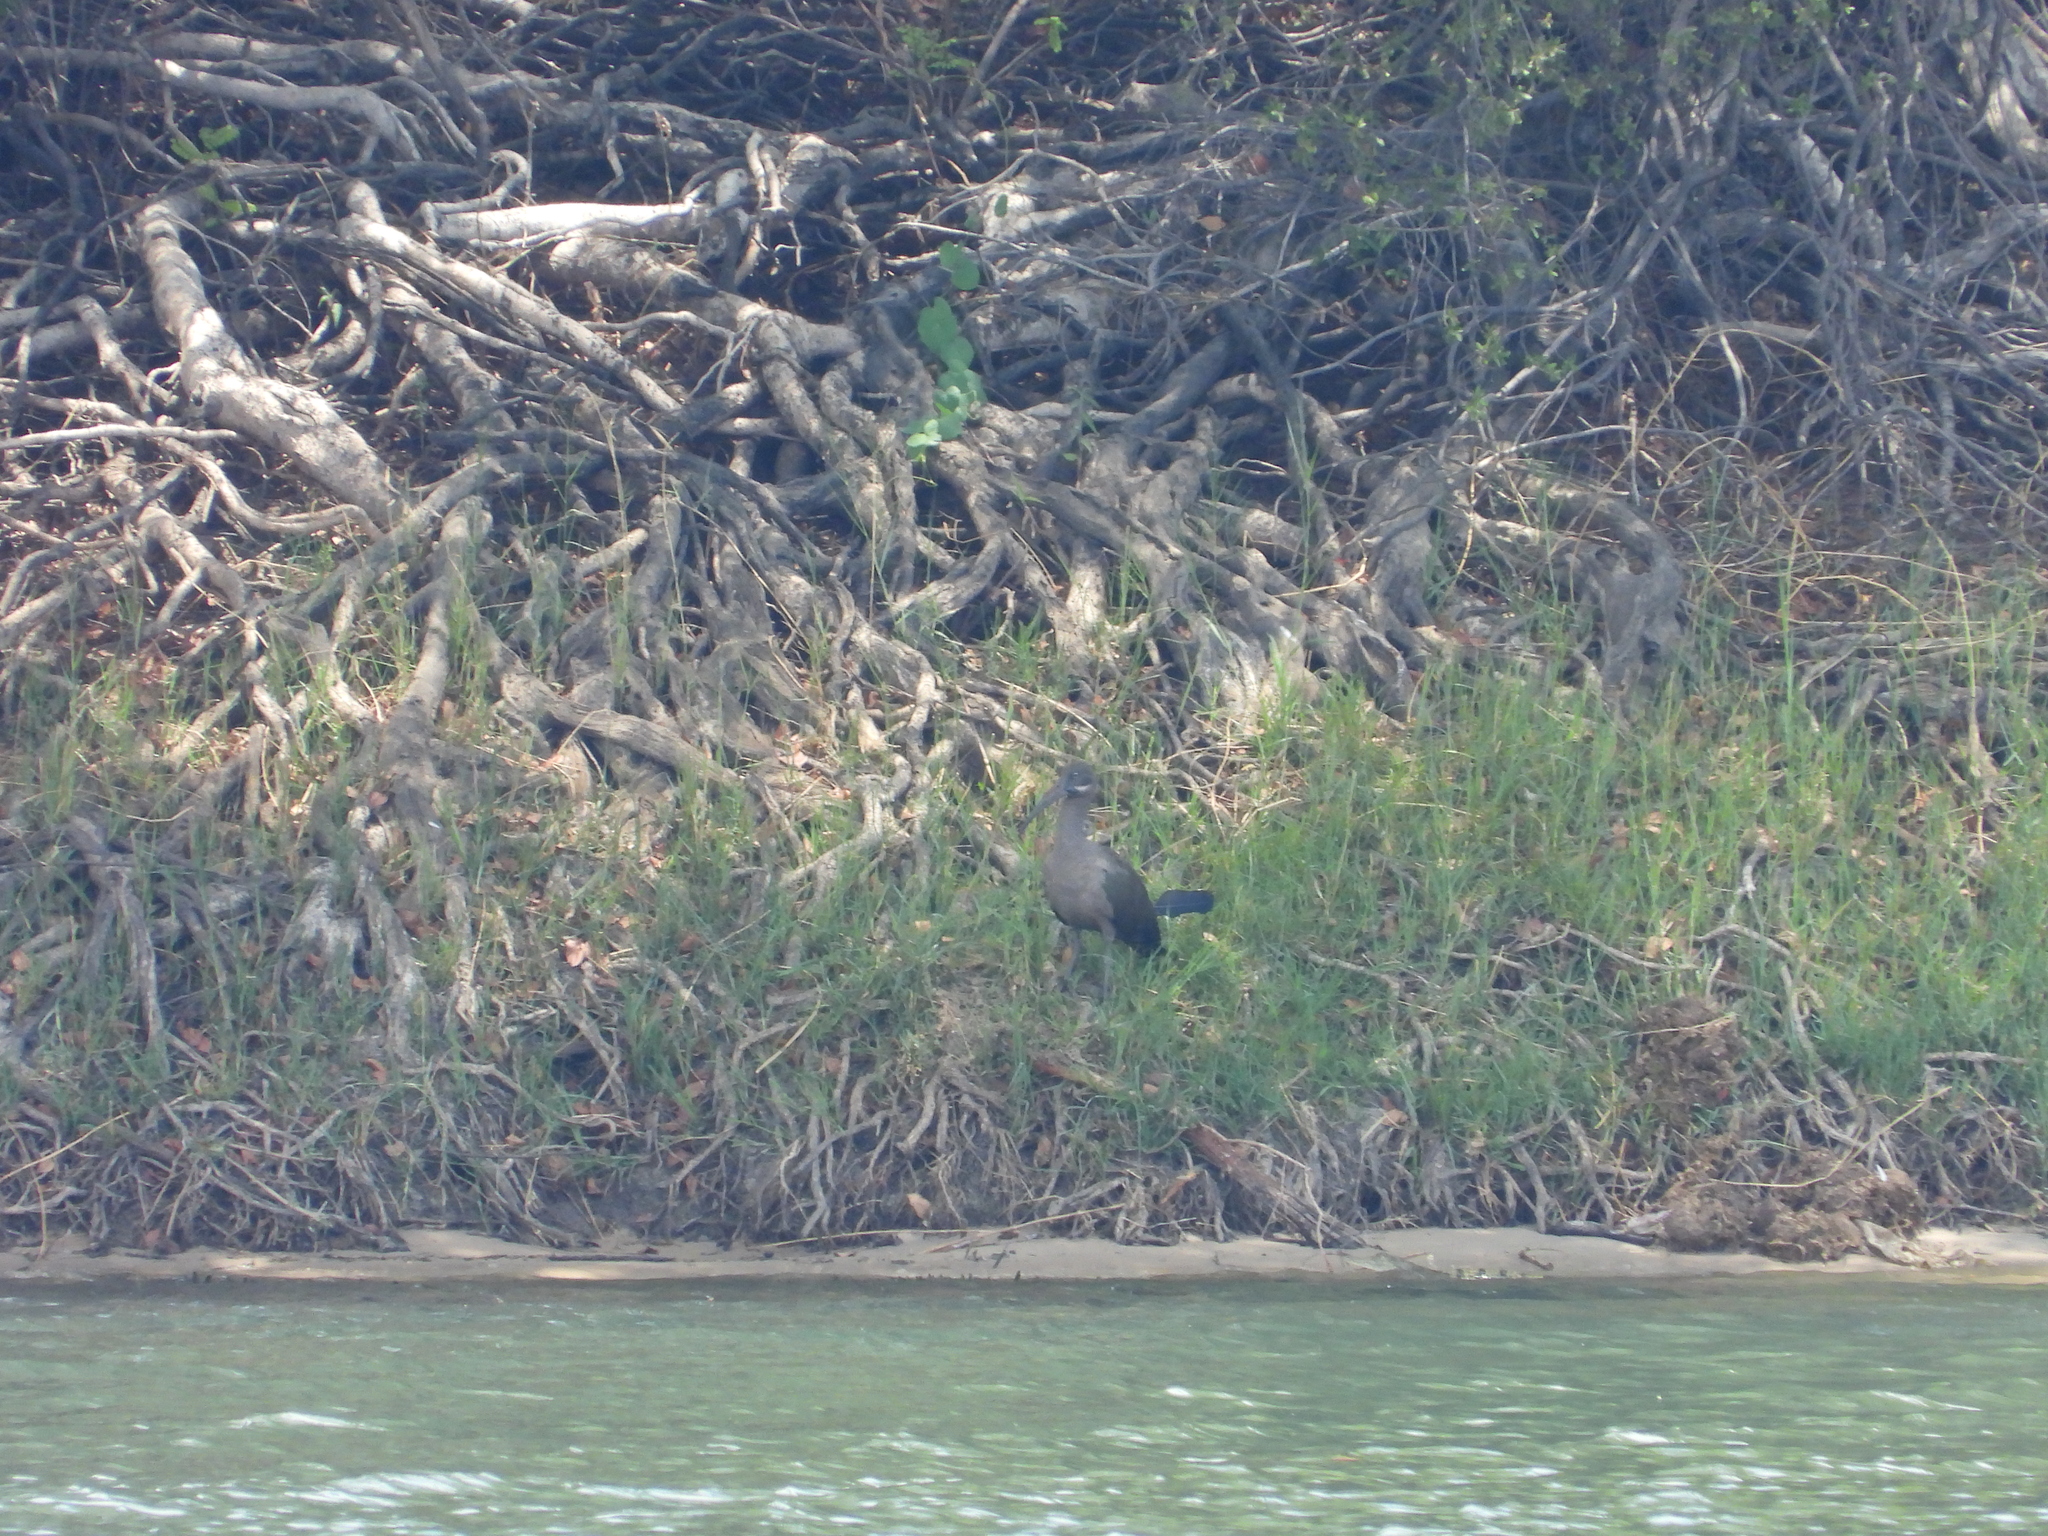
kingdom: Animalia
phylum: Chordata
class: Aves
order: Pelecaniformes
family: Threskiornithidae
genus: Bostrychia
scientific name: Bostrychia hagedash
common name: Hadada ibis
